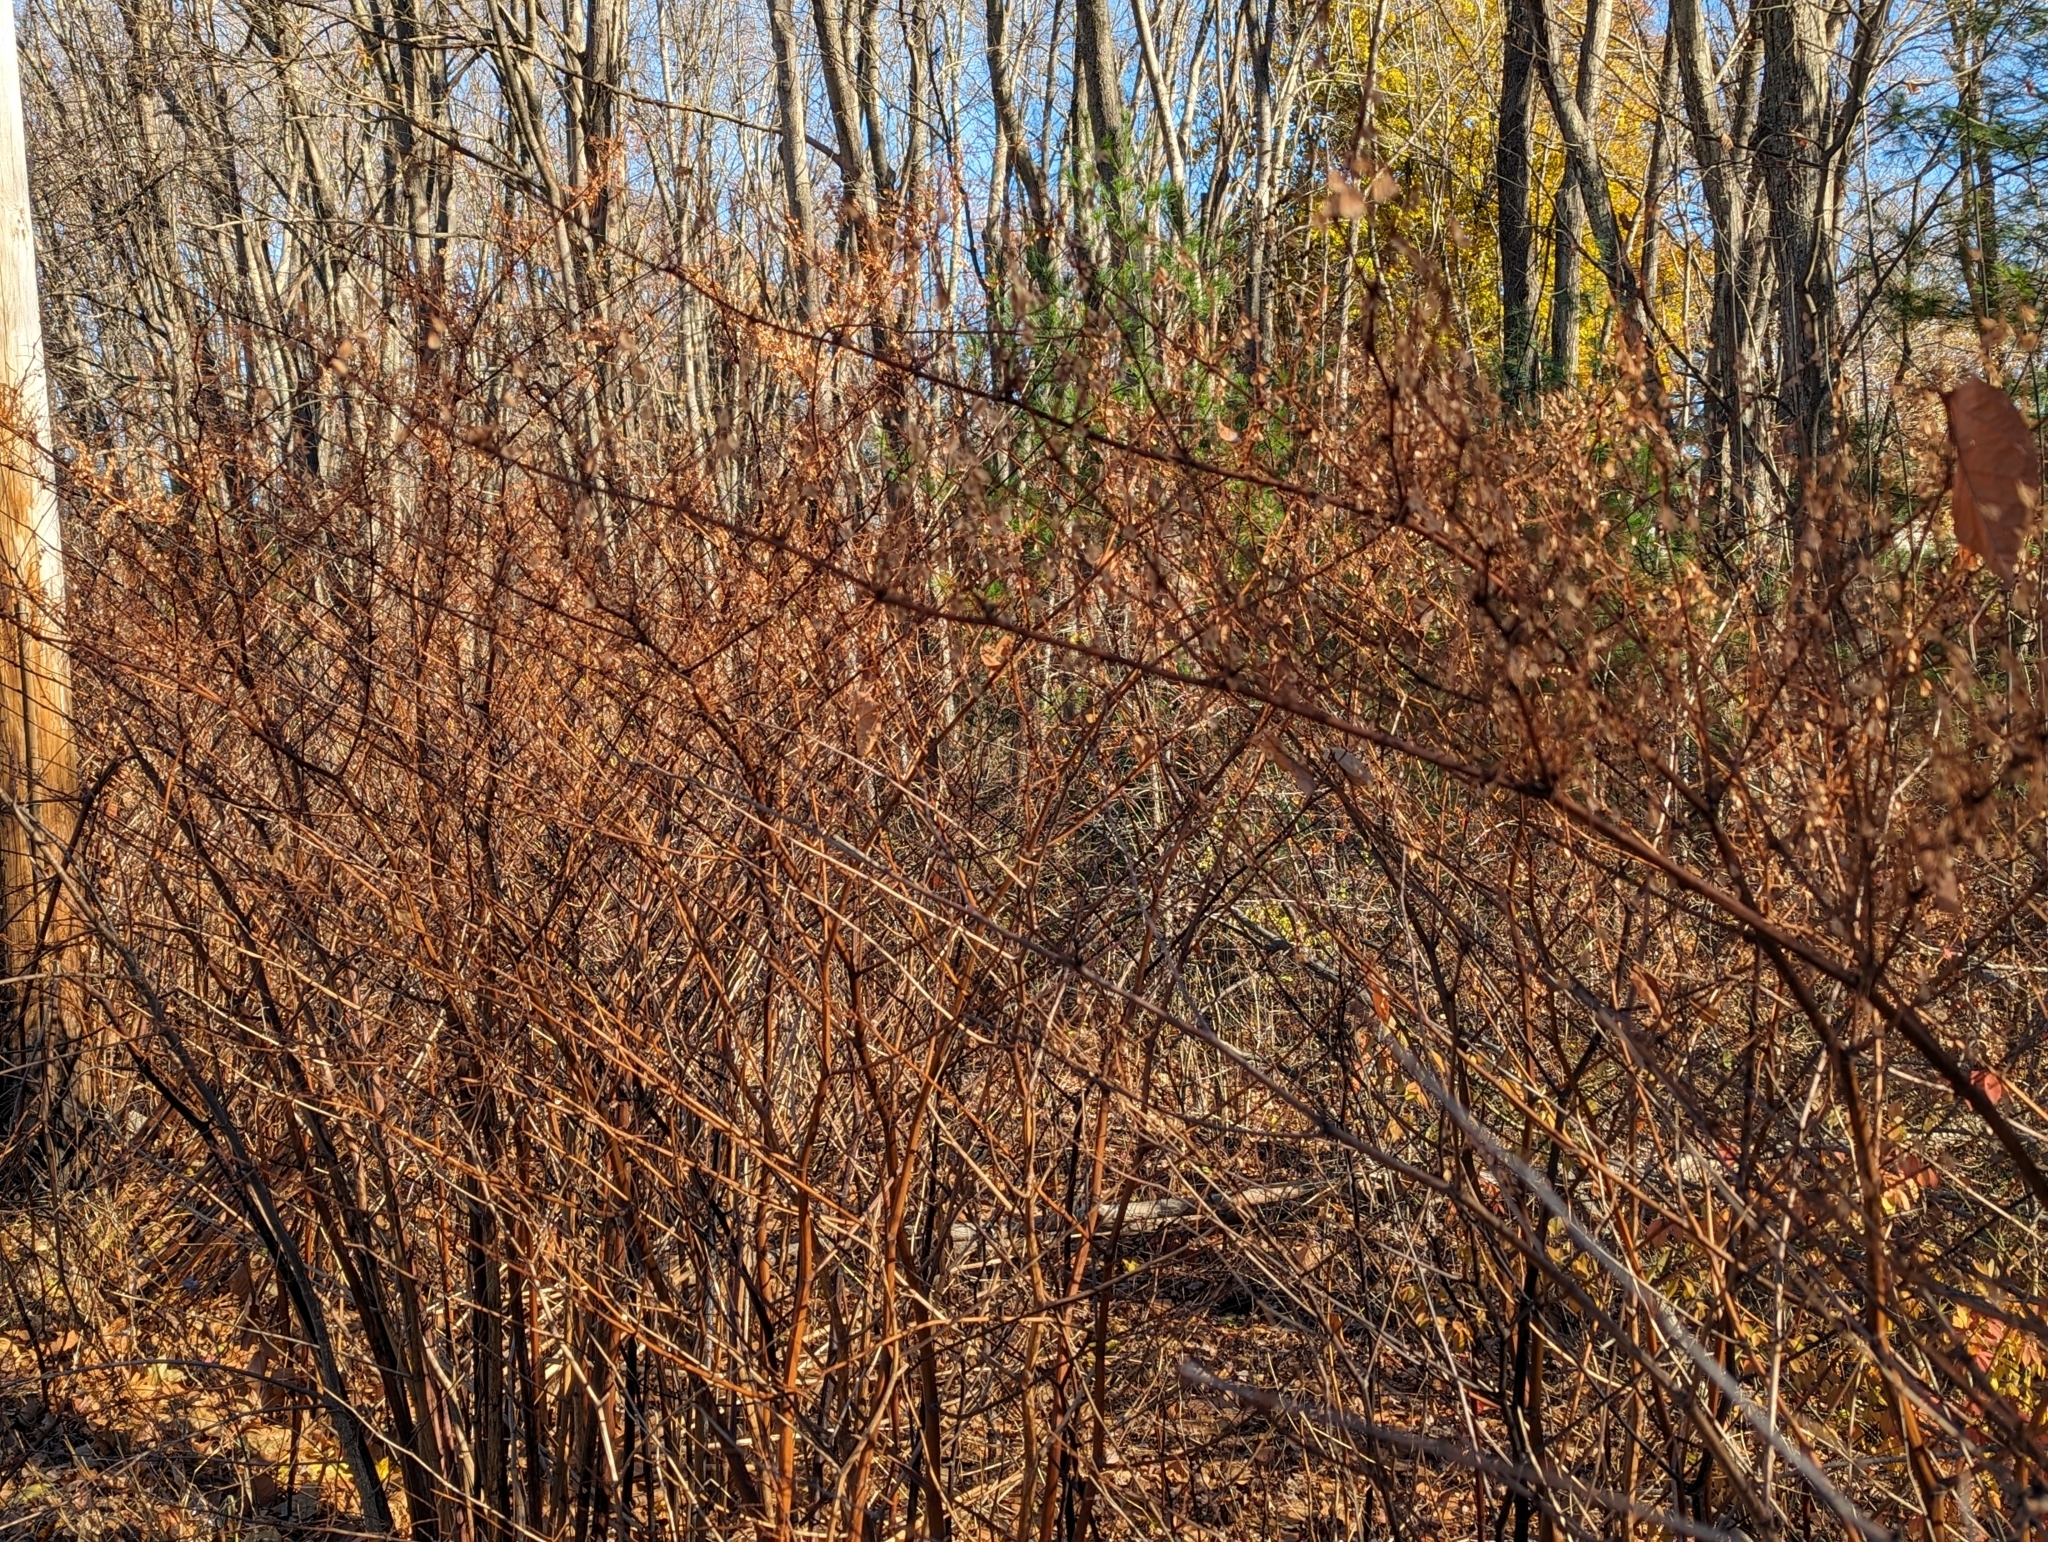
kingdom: Plantae
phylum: Tracheophyta
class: Magnoliopsida
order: Caryophyllales
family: Polygonaceae
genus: Reynoutria
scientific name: Reynoutria japonica
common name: Japanese knotweed
